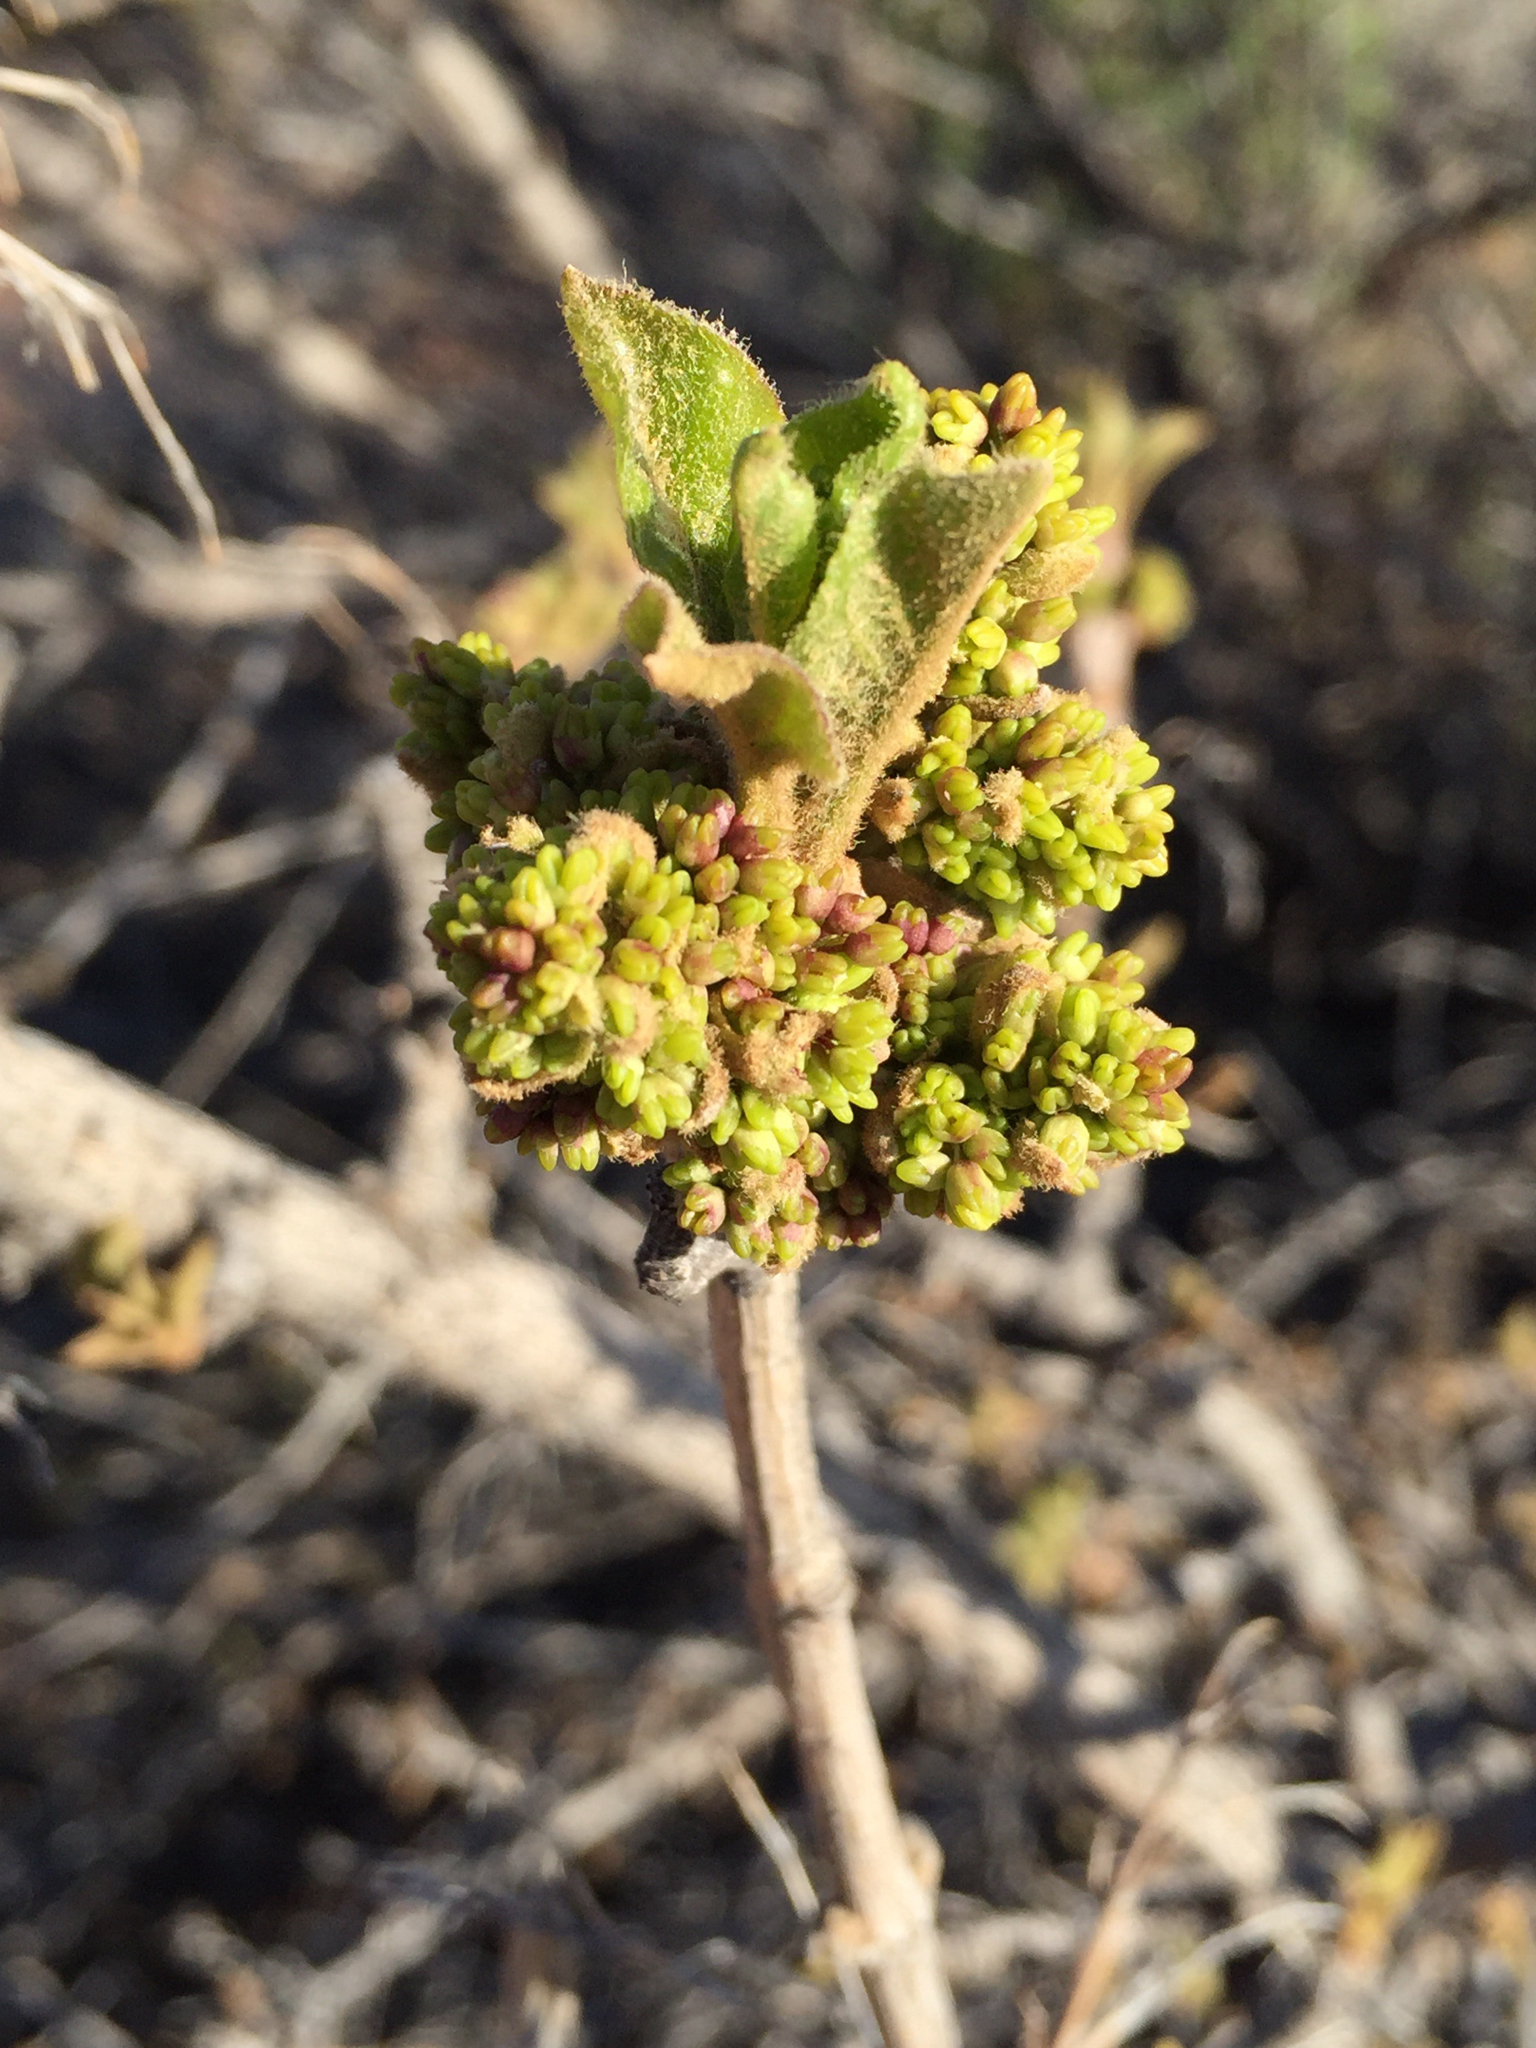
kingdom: Plantae
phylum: Tracheophyta
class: Magnoliopsida
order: Fagales
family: Fagaceae
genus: Quercus
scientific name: Quercus gambelii
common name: Gambel oak
